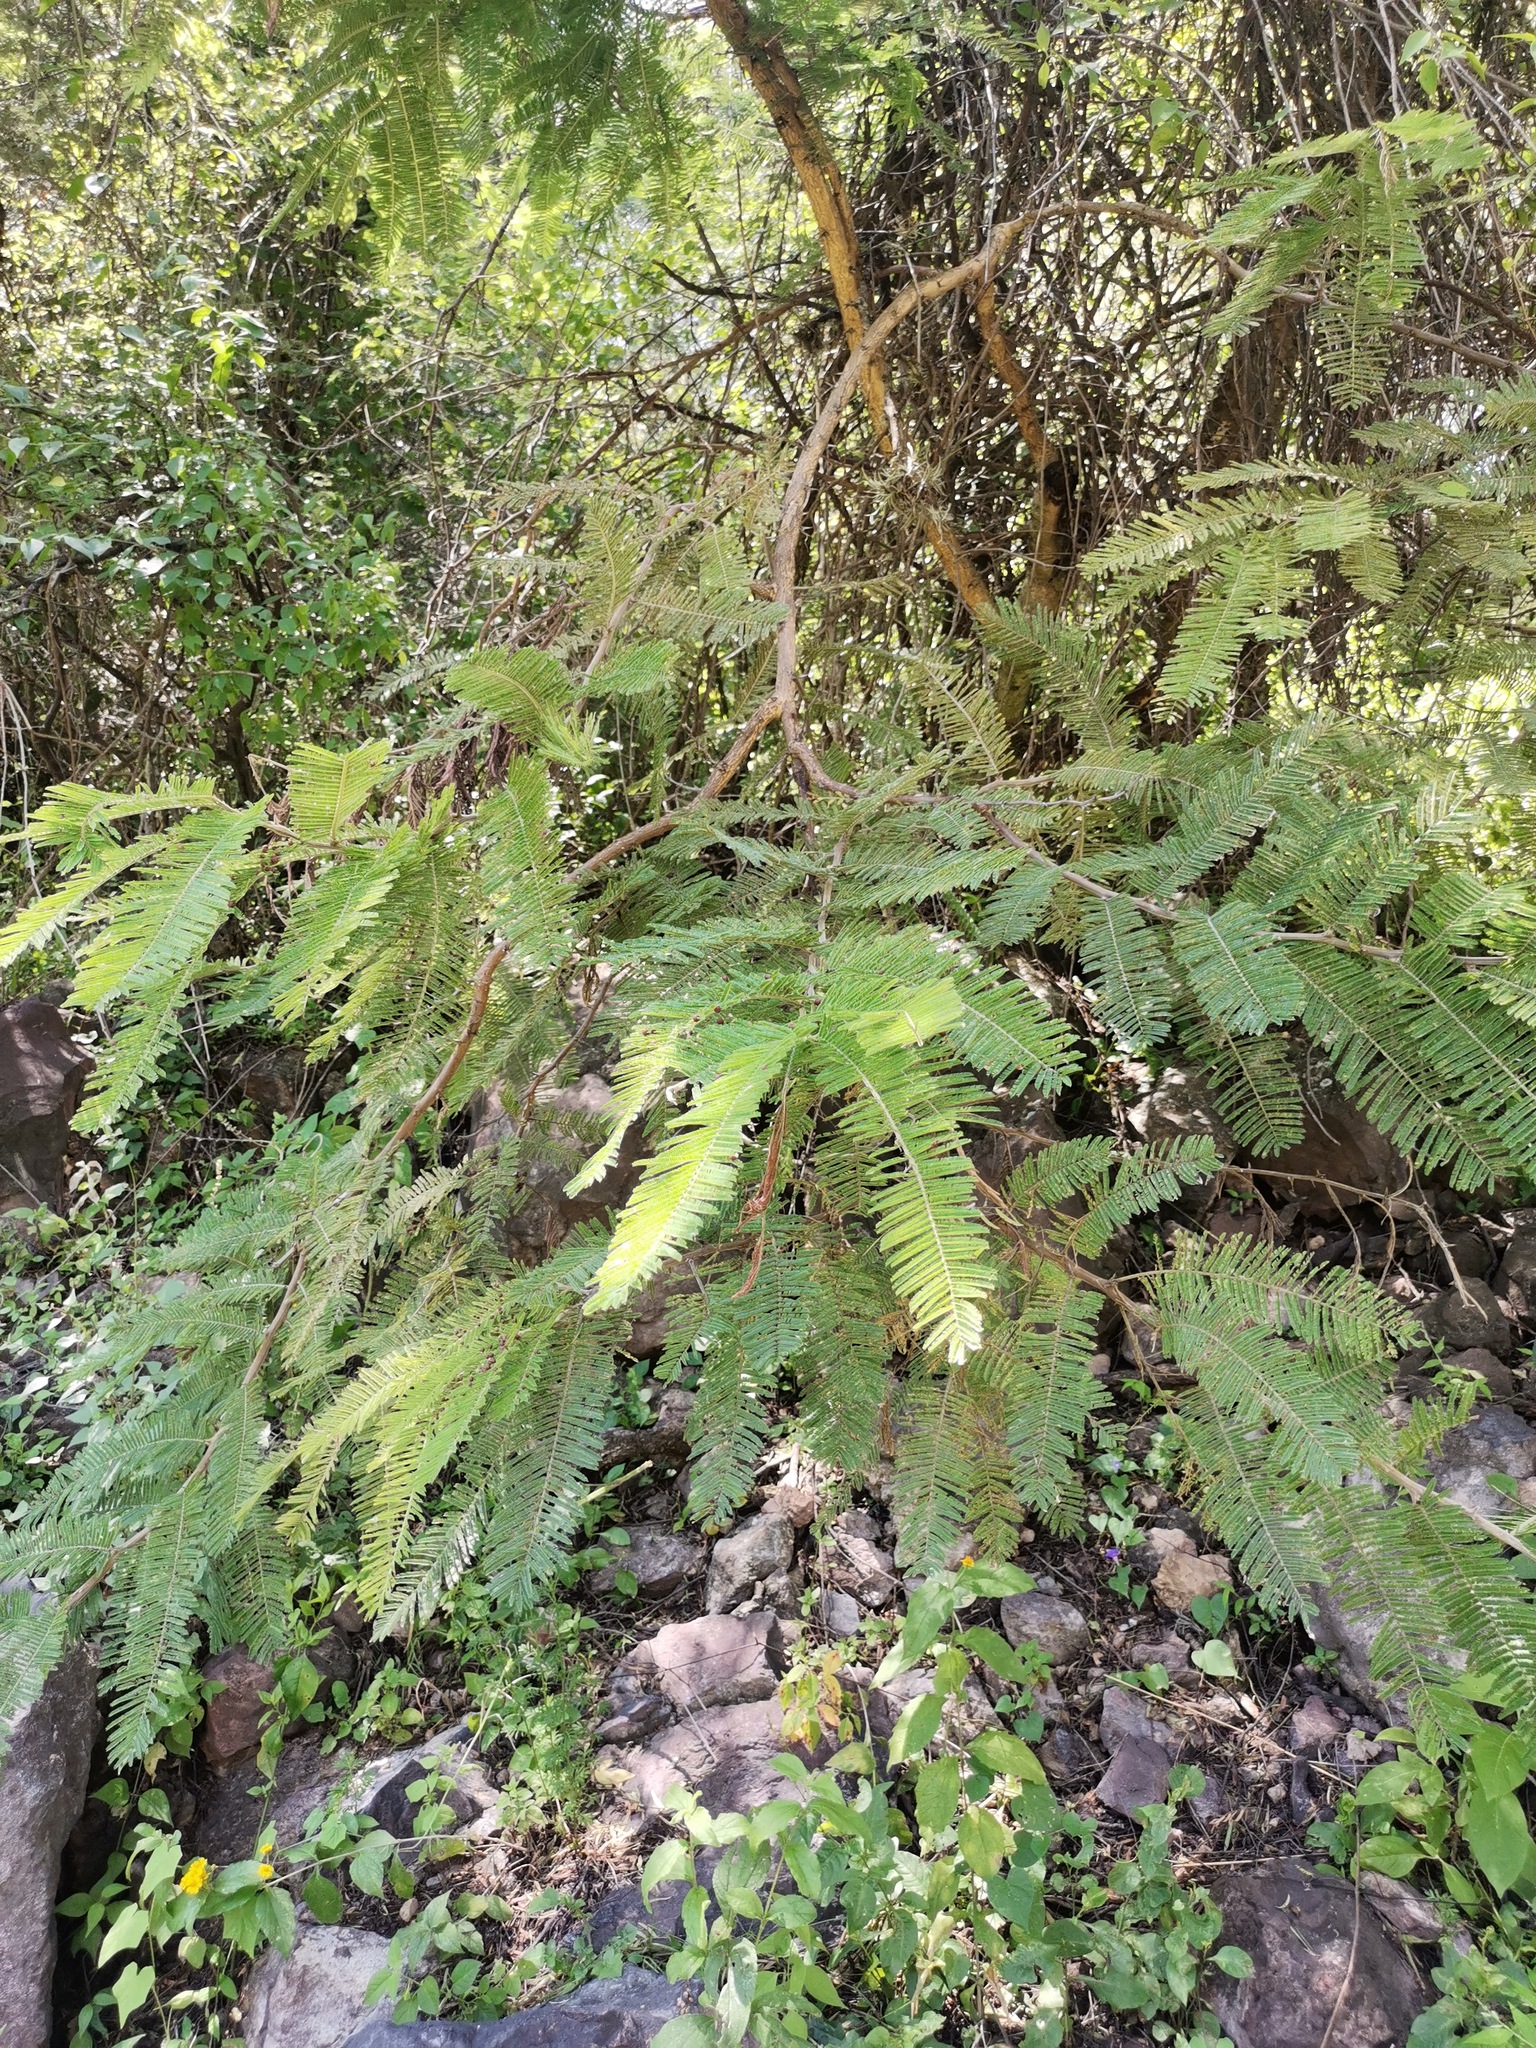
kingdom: Plantae
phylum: Tracheophyta
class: Magnoliopsida
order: Fabales
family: Fabaceae
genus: Vachellia
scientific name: Vachellia pennatula
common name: Fern-leaf acacia
